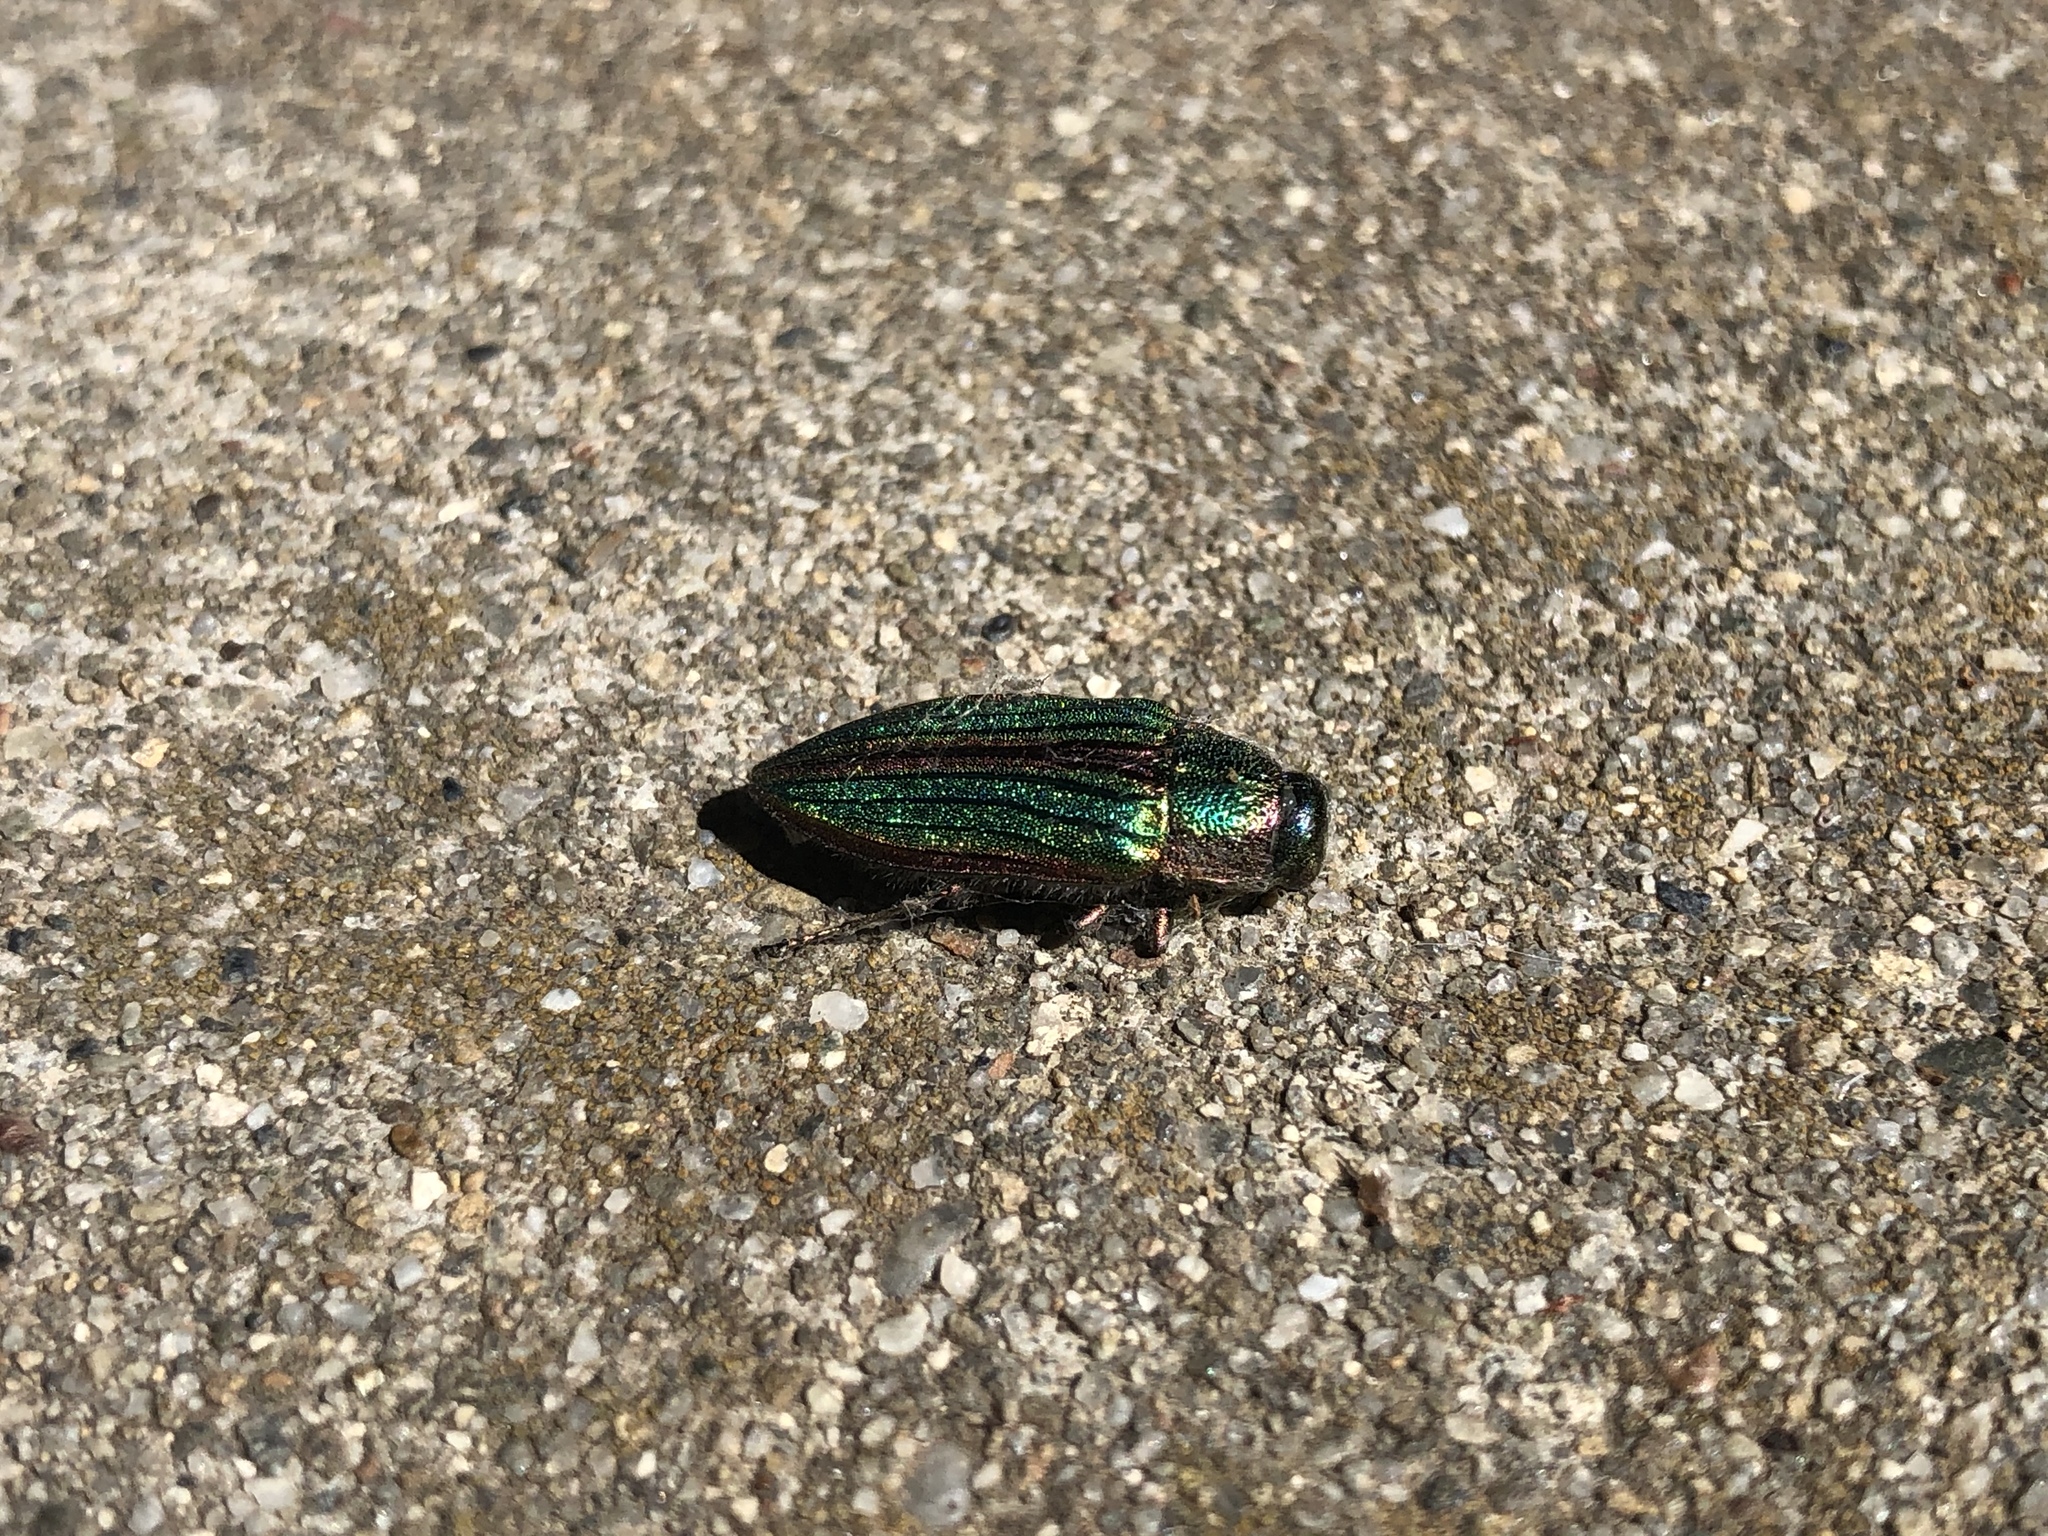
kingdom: Animalia
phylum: Arthropoda
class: Insecta
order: Coleoptera
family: Buprestidae
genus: Buprestis
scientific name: Buprestis aurulenta
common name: Golden buprestid
